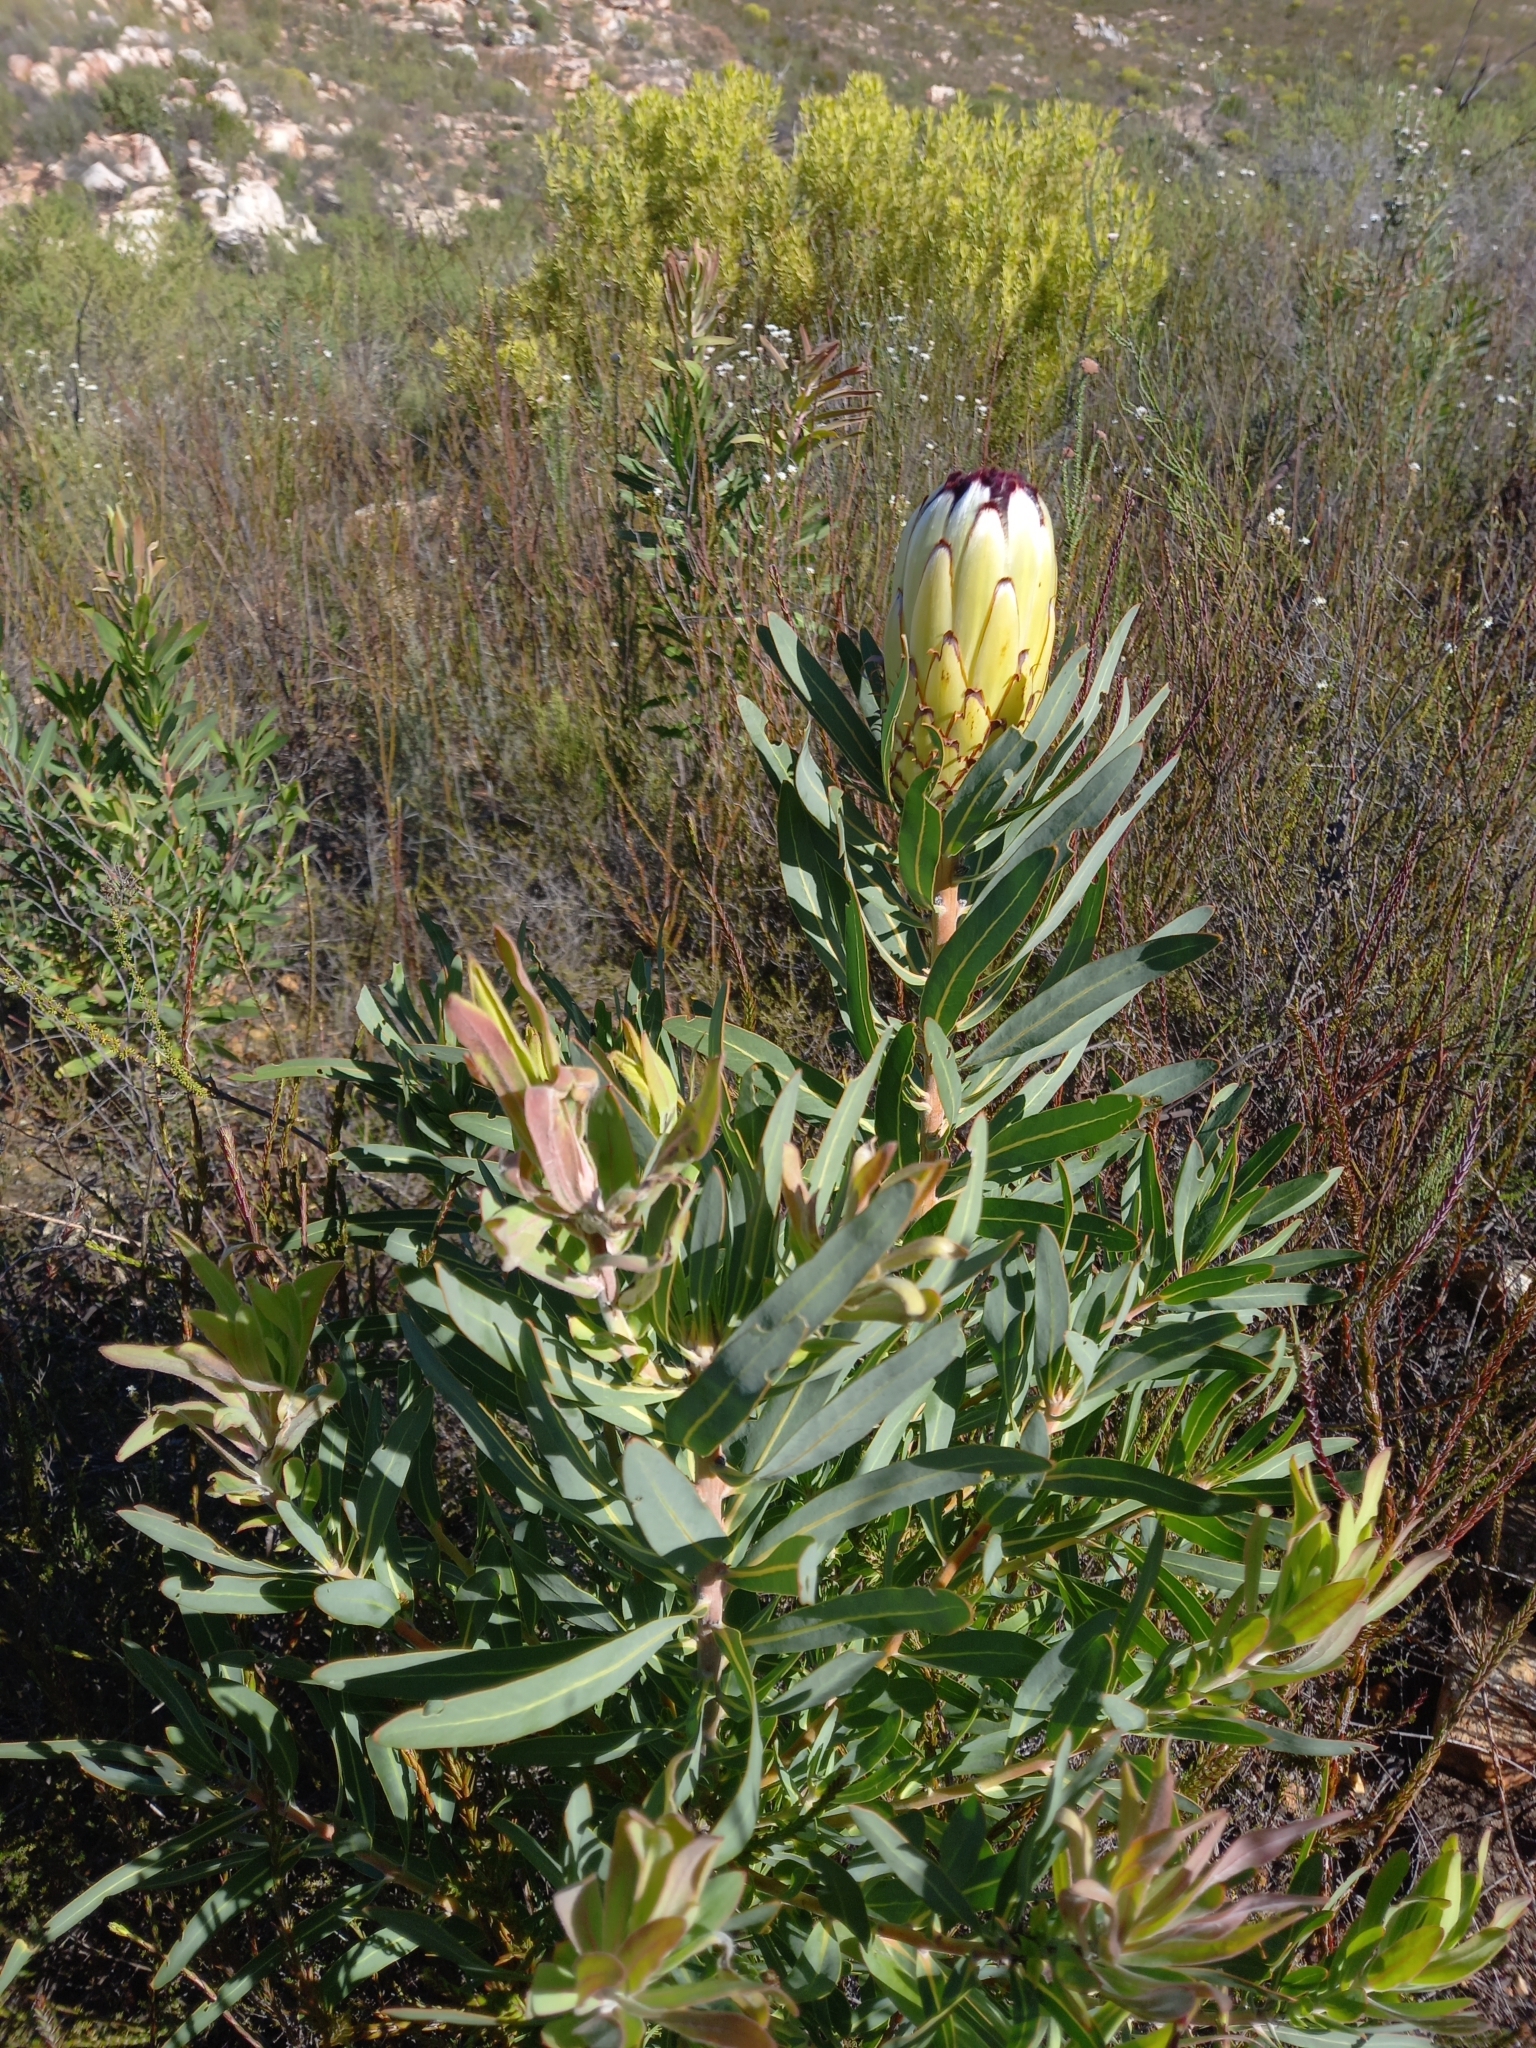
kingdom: Plantae
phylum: Tracheophyta
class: Magnoliopsida
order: Proteales
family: Proteaceae
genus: Protea
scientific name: Protea neriifolia
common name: Blue sugarbush
